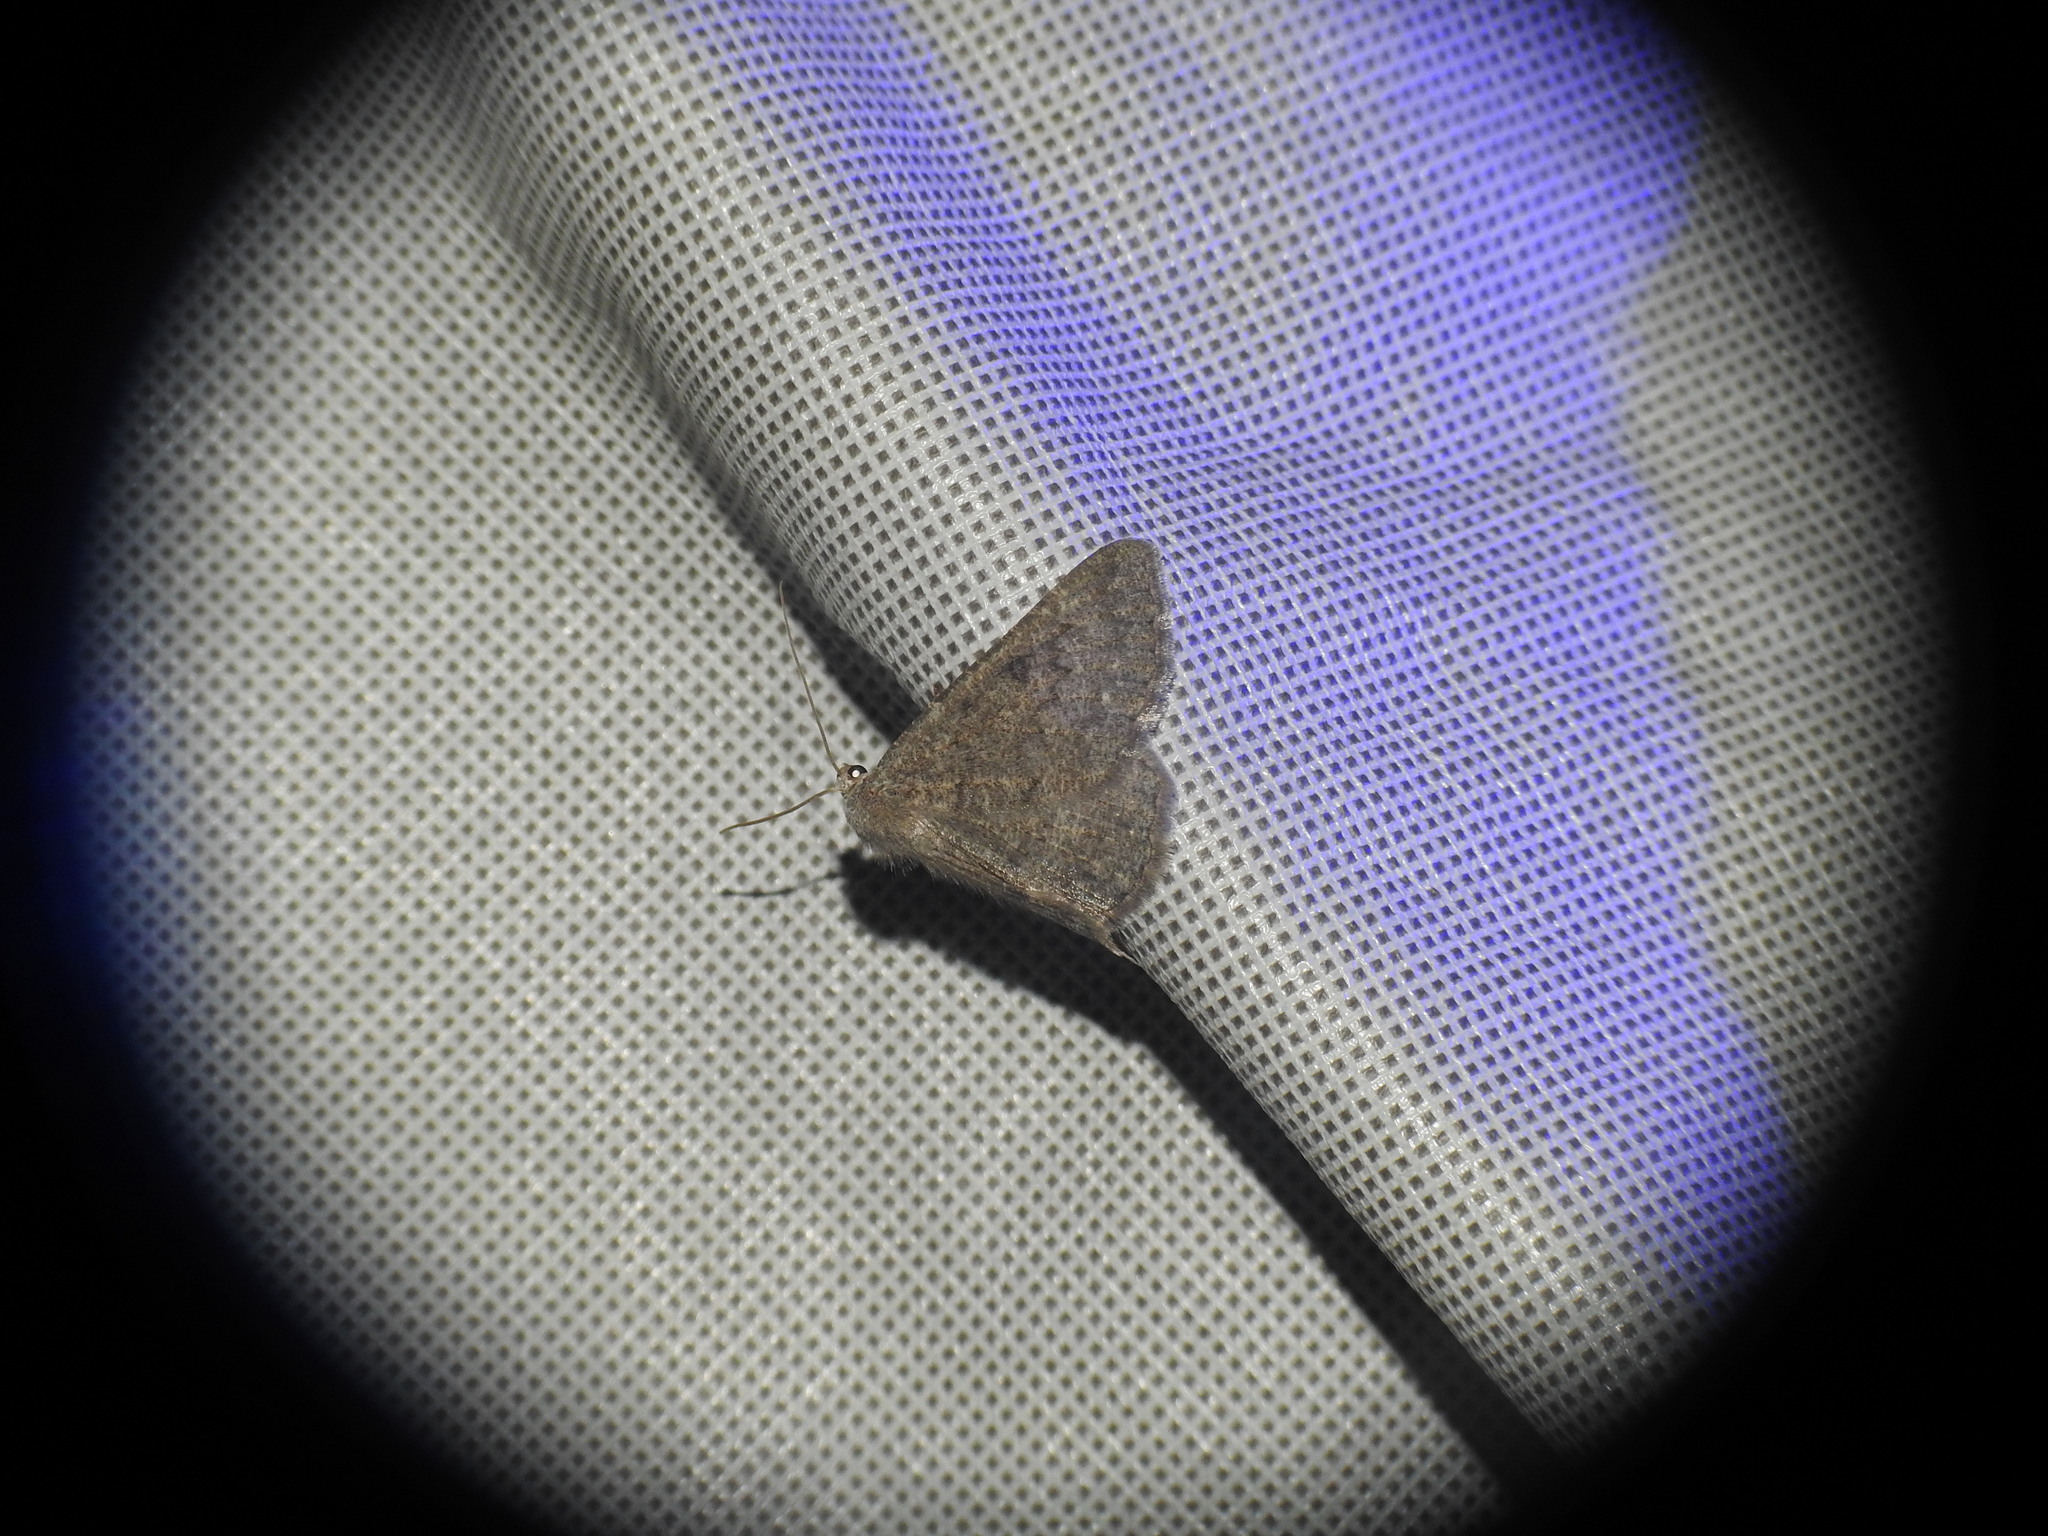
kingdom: Animalia
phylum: Arthropoda
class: Insecta
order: Lepidoptera
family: Geometridae
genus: Gnophos
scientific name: Gnophos obfuscata
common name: Scottish annulet
